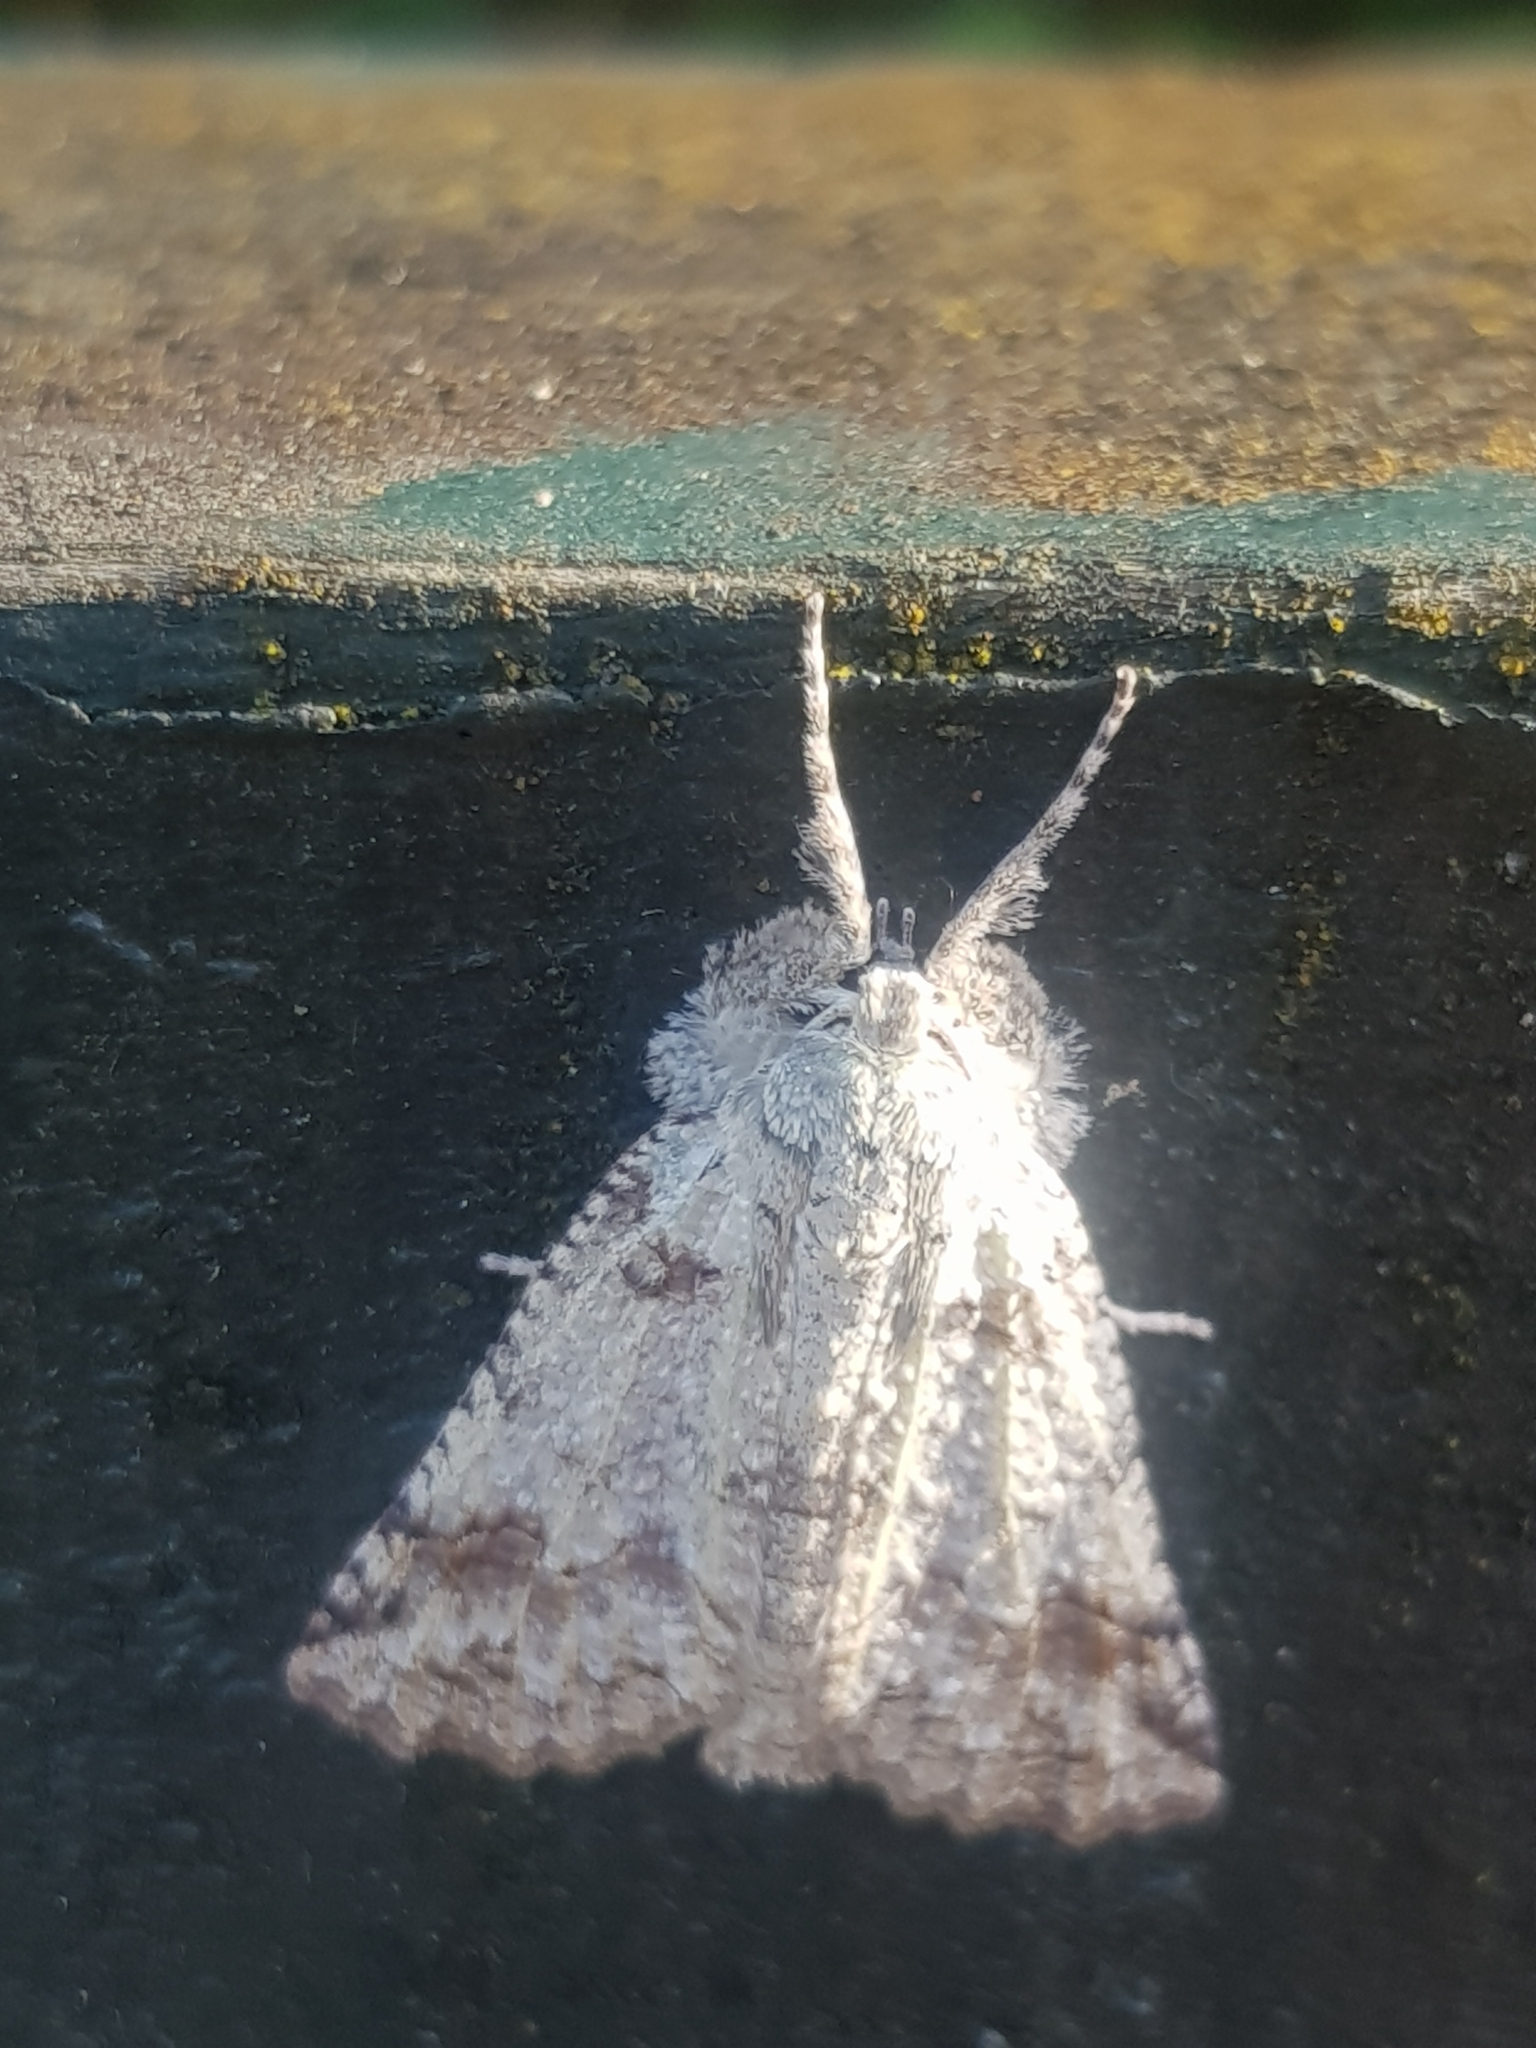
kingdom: Animalia
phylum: Arthropoda
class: Insecta
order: Lepidoptera
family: Geometridae
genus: Declana
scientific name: Declana floccosa
